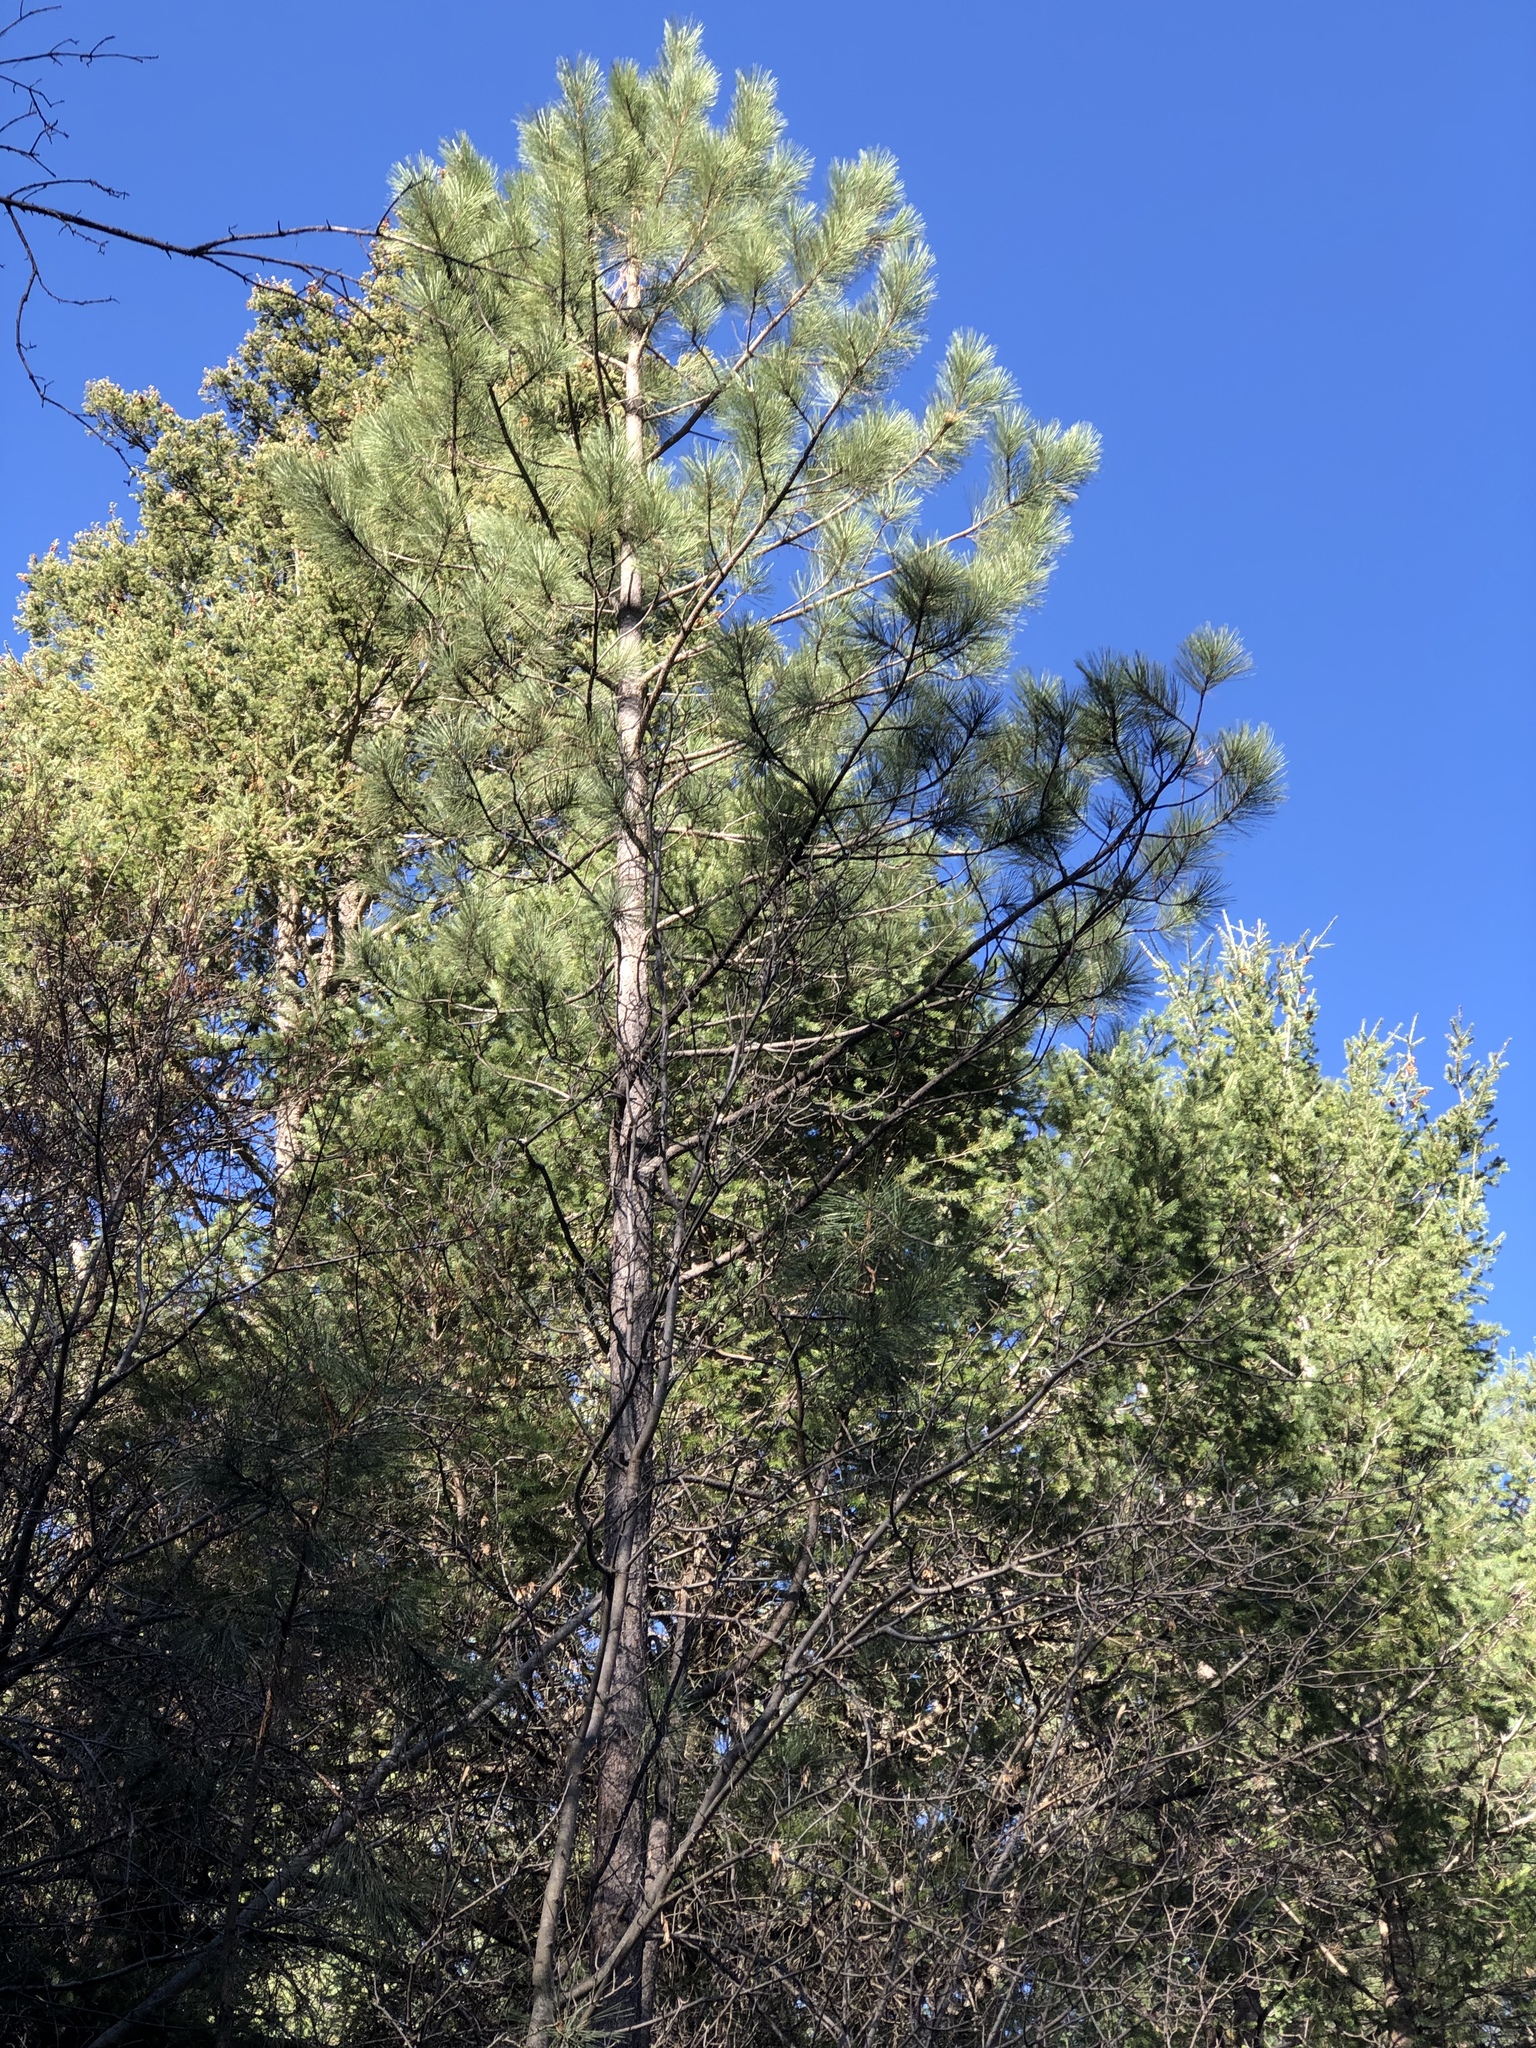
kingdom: Plantae
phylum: Tracheophyta
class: Pinopsida
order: Pinales
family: Pinaceae
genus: Pinus
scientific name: Pinus ponderosa
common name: Western yellow-pine
